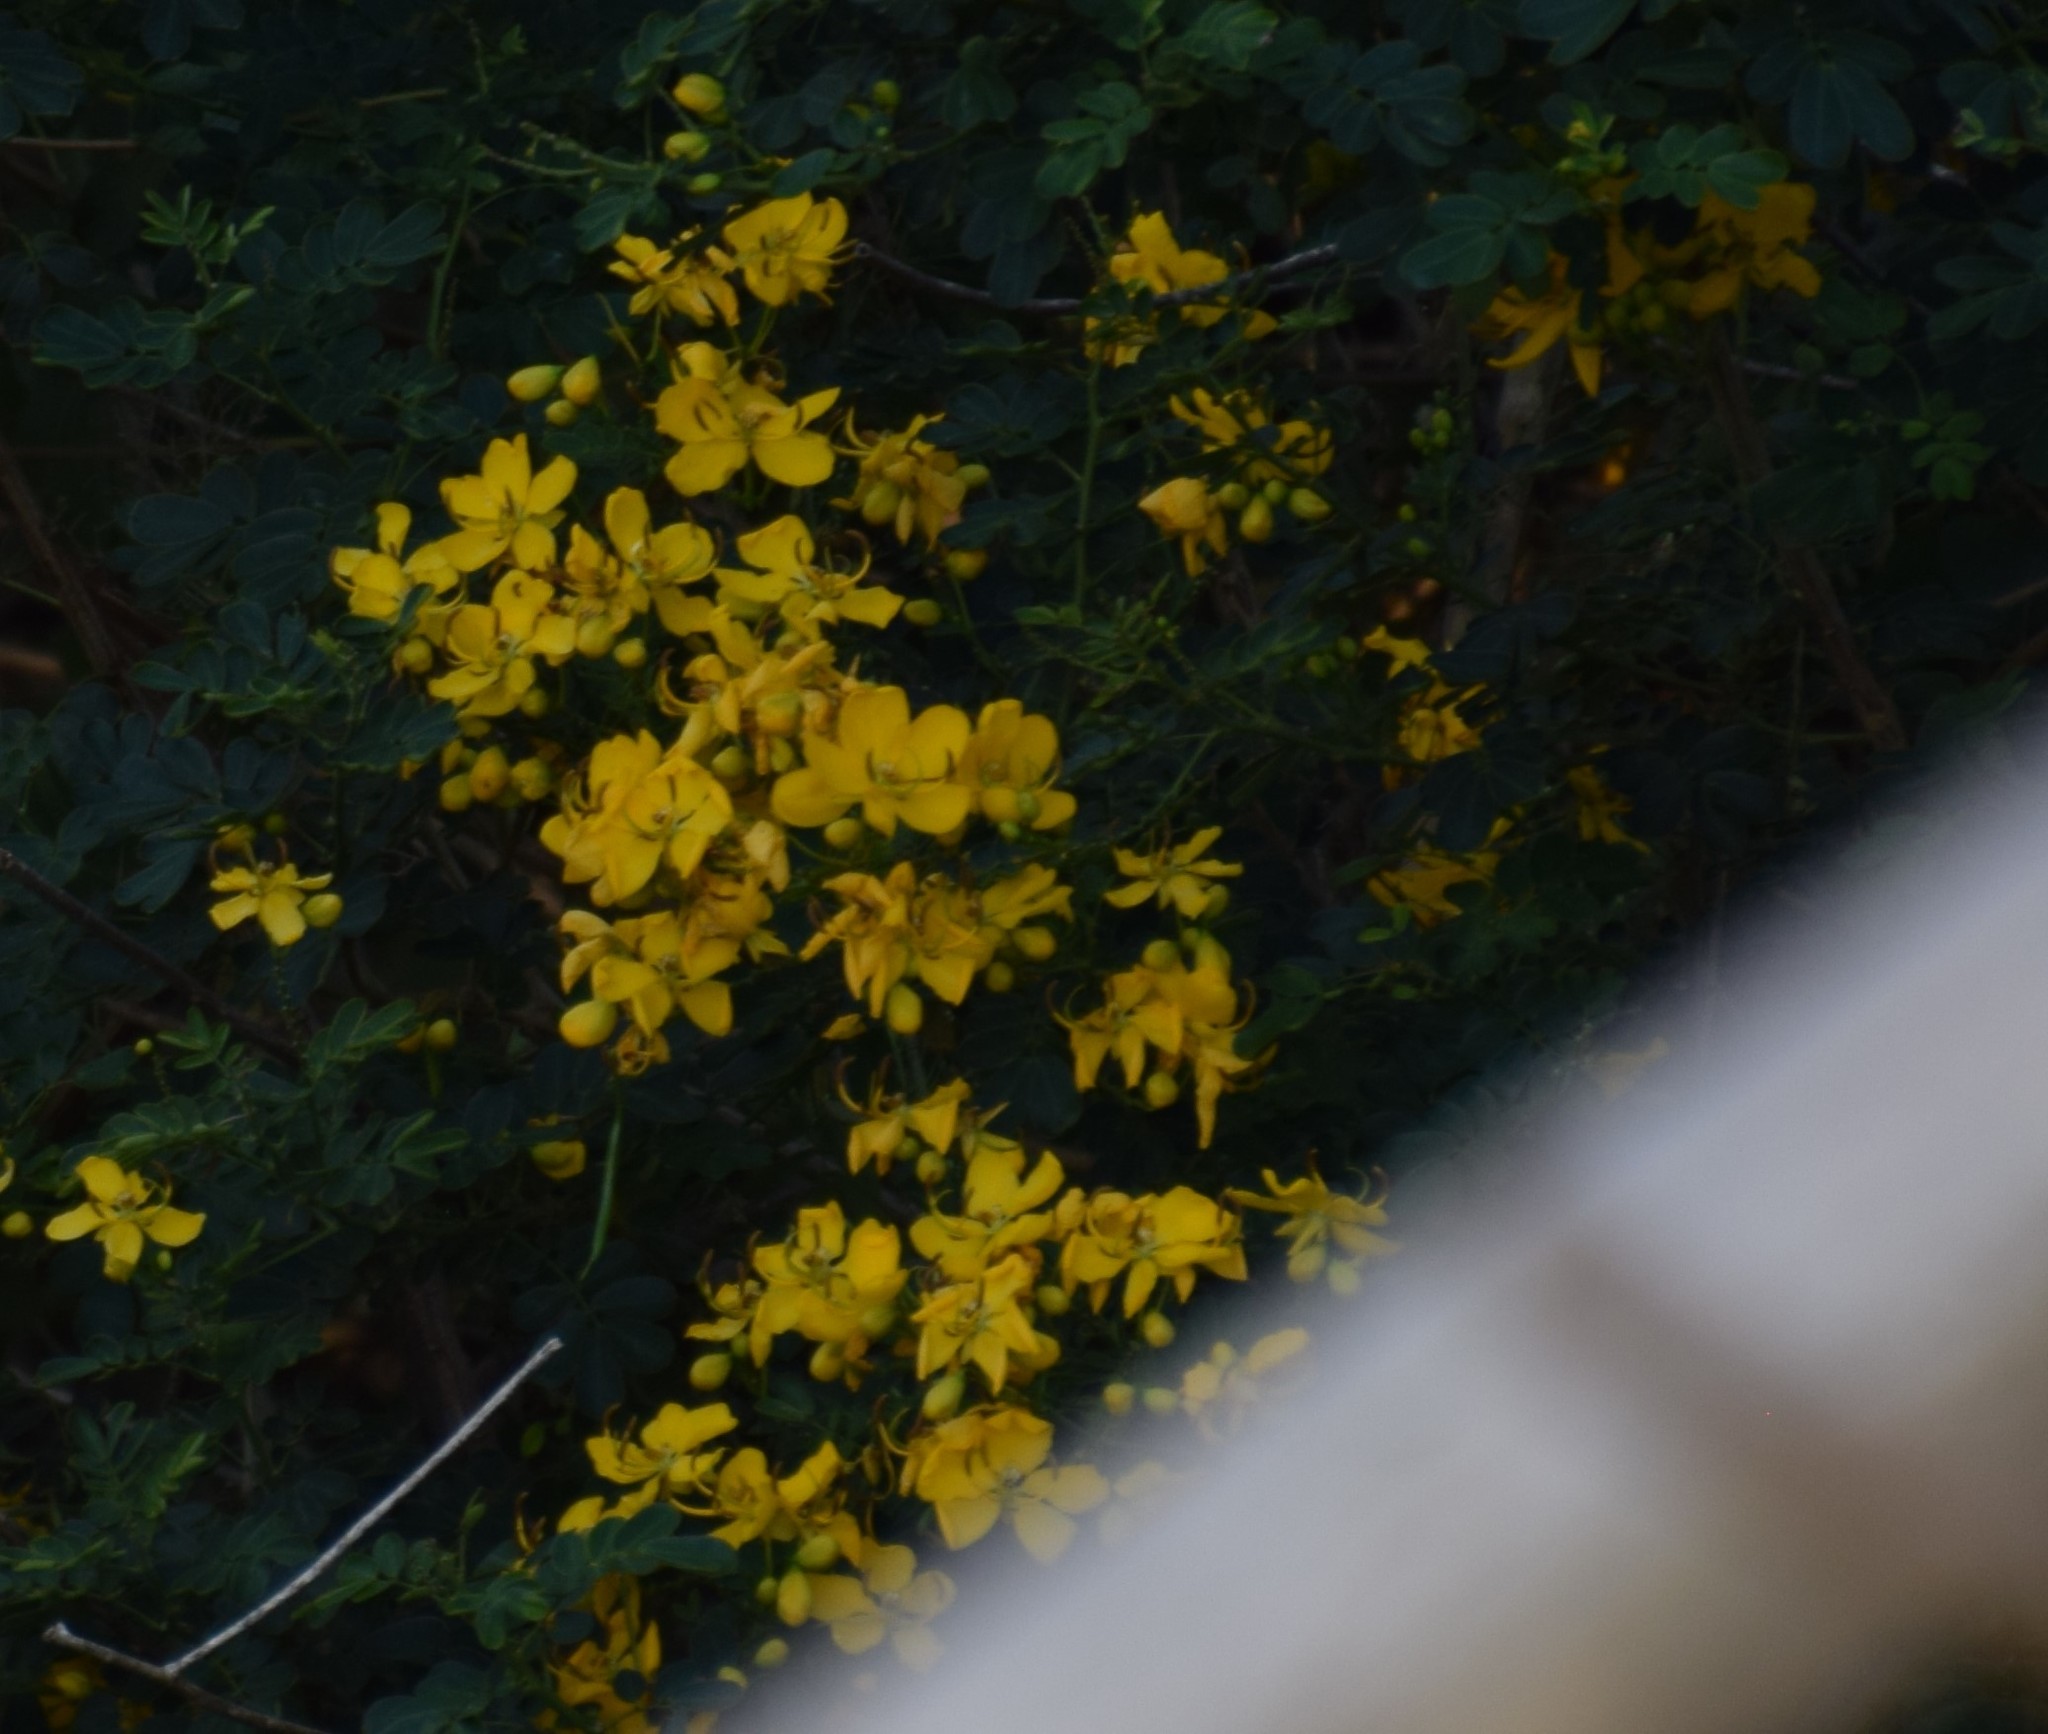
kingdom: Plantae
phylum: Tracheophyta
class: Magnoliopsida
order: Fabales
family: Fabaceae
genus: Senna
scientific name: Senna pendula
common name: Easter cassia
